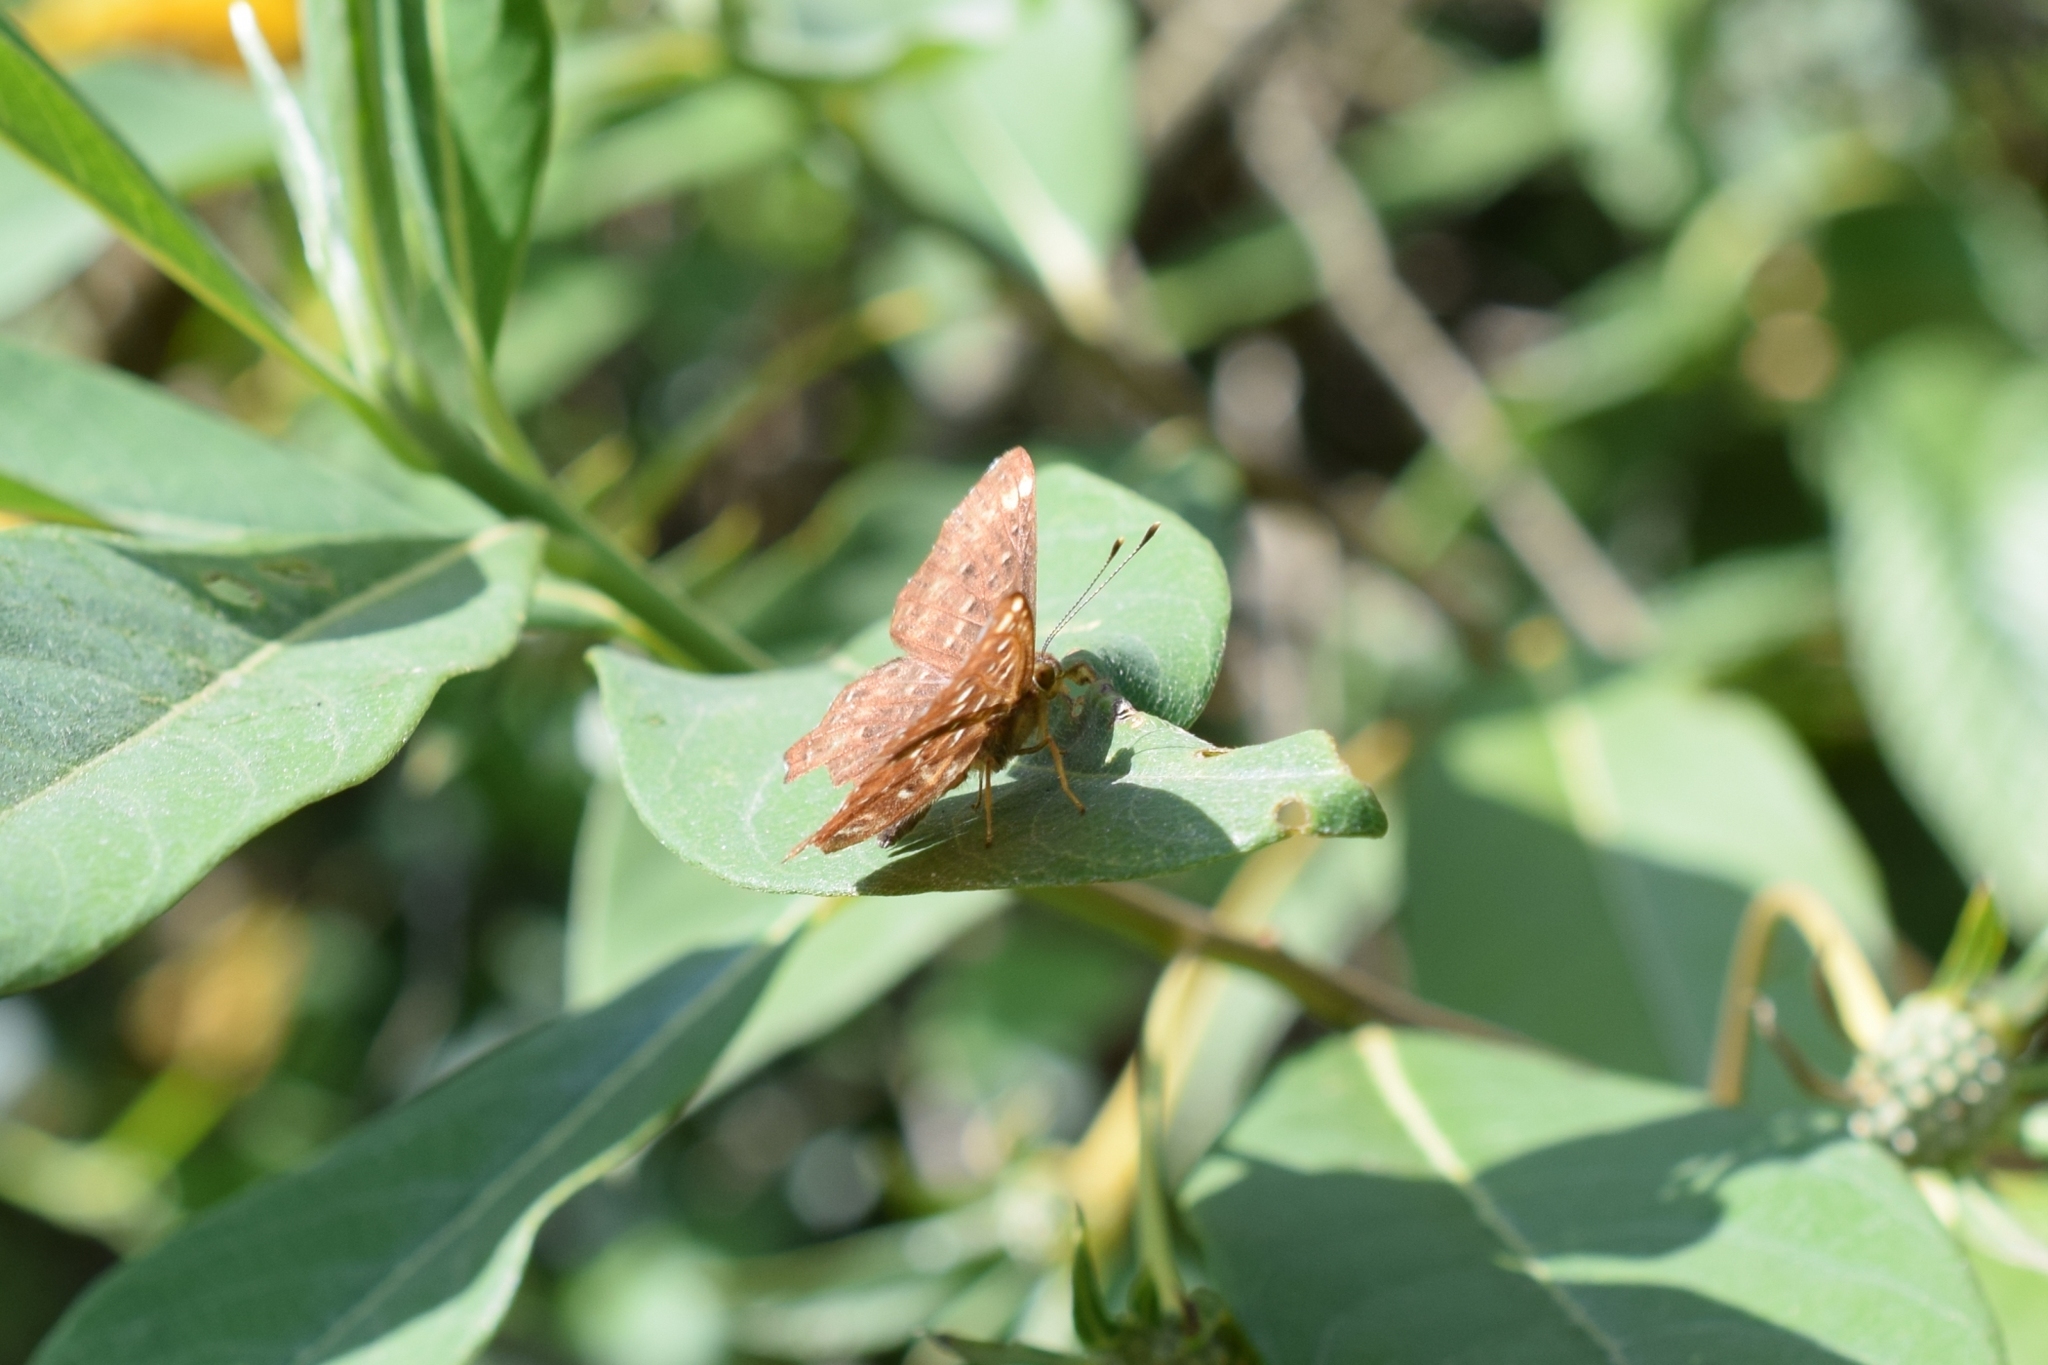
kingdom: Animalia
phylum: Arthropoda
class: Insecta
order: Lepidoptera
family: Riodinidae
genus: Zemeros
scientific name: Zemeros flegyas
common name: Punchinello
